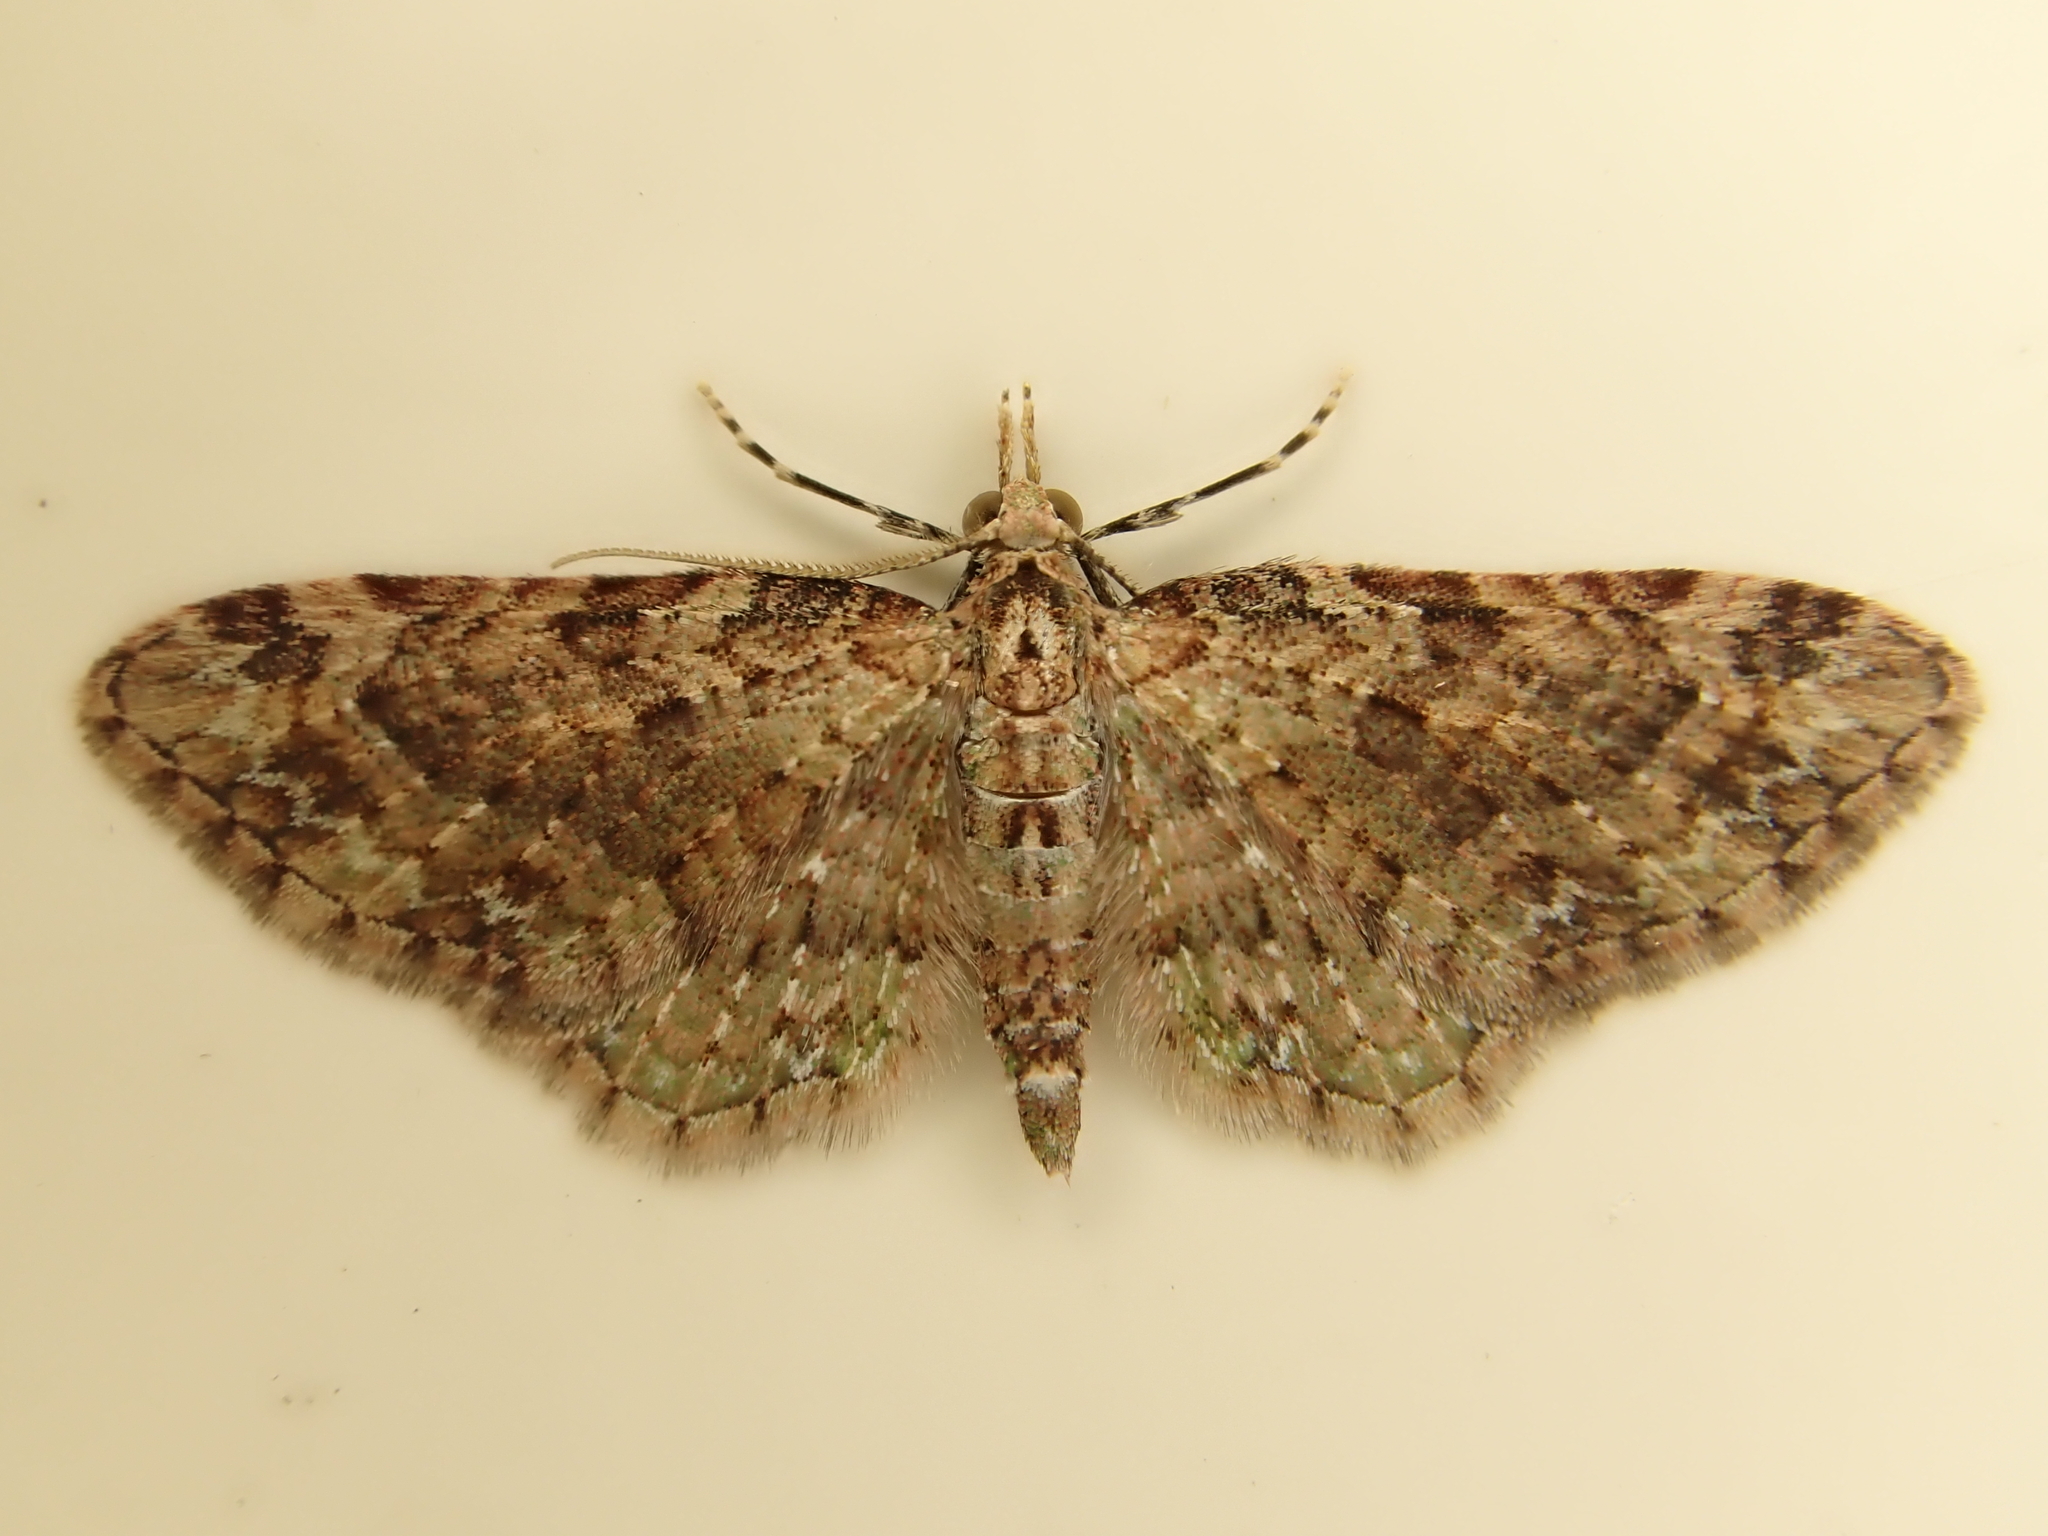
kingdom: Animalia
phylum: Arthropoda
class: Insecta
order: Lepidoptera
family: Geometridae
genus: Pasiphila
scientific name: Pasiphila plinthina
